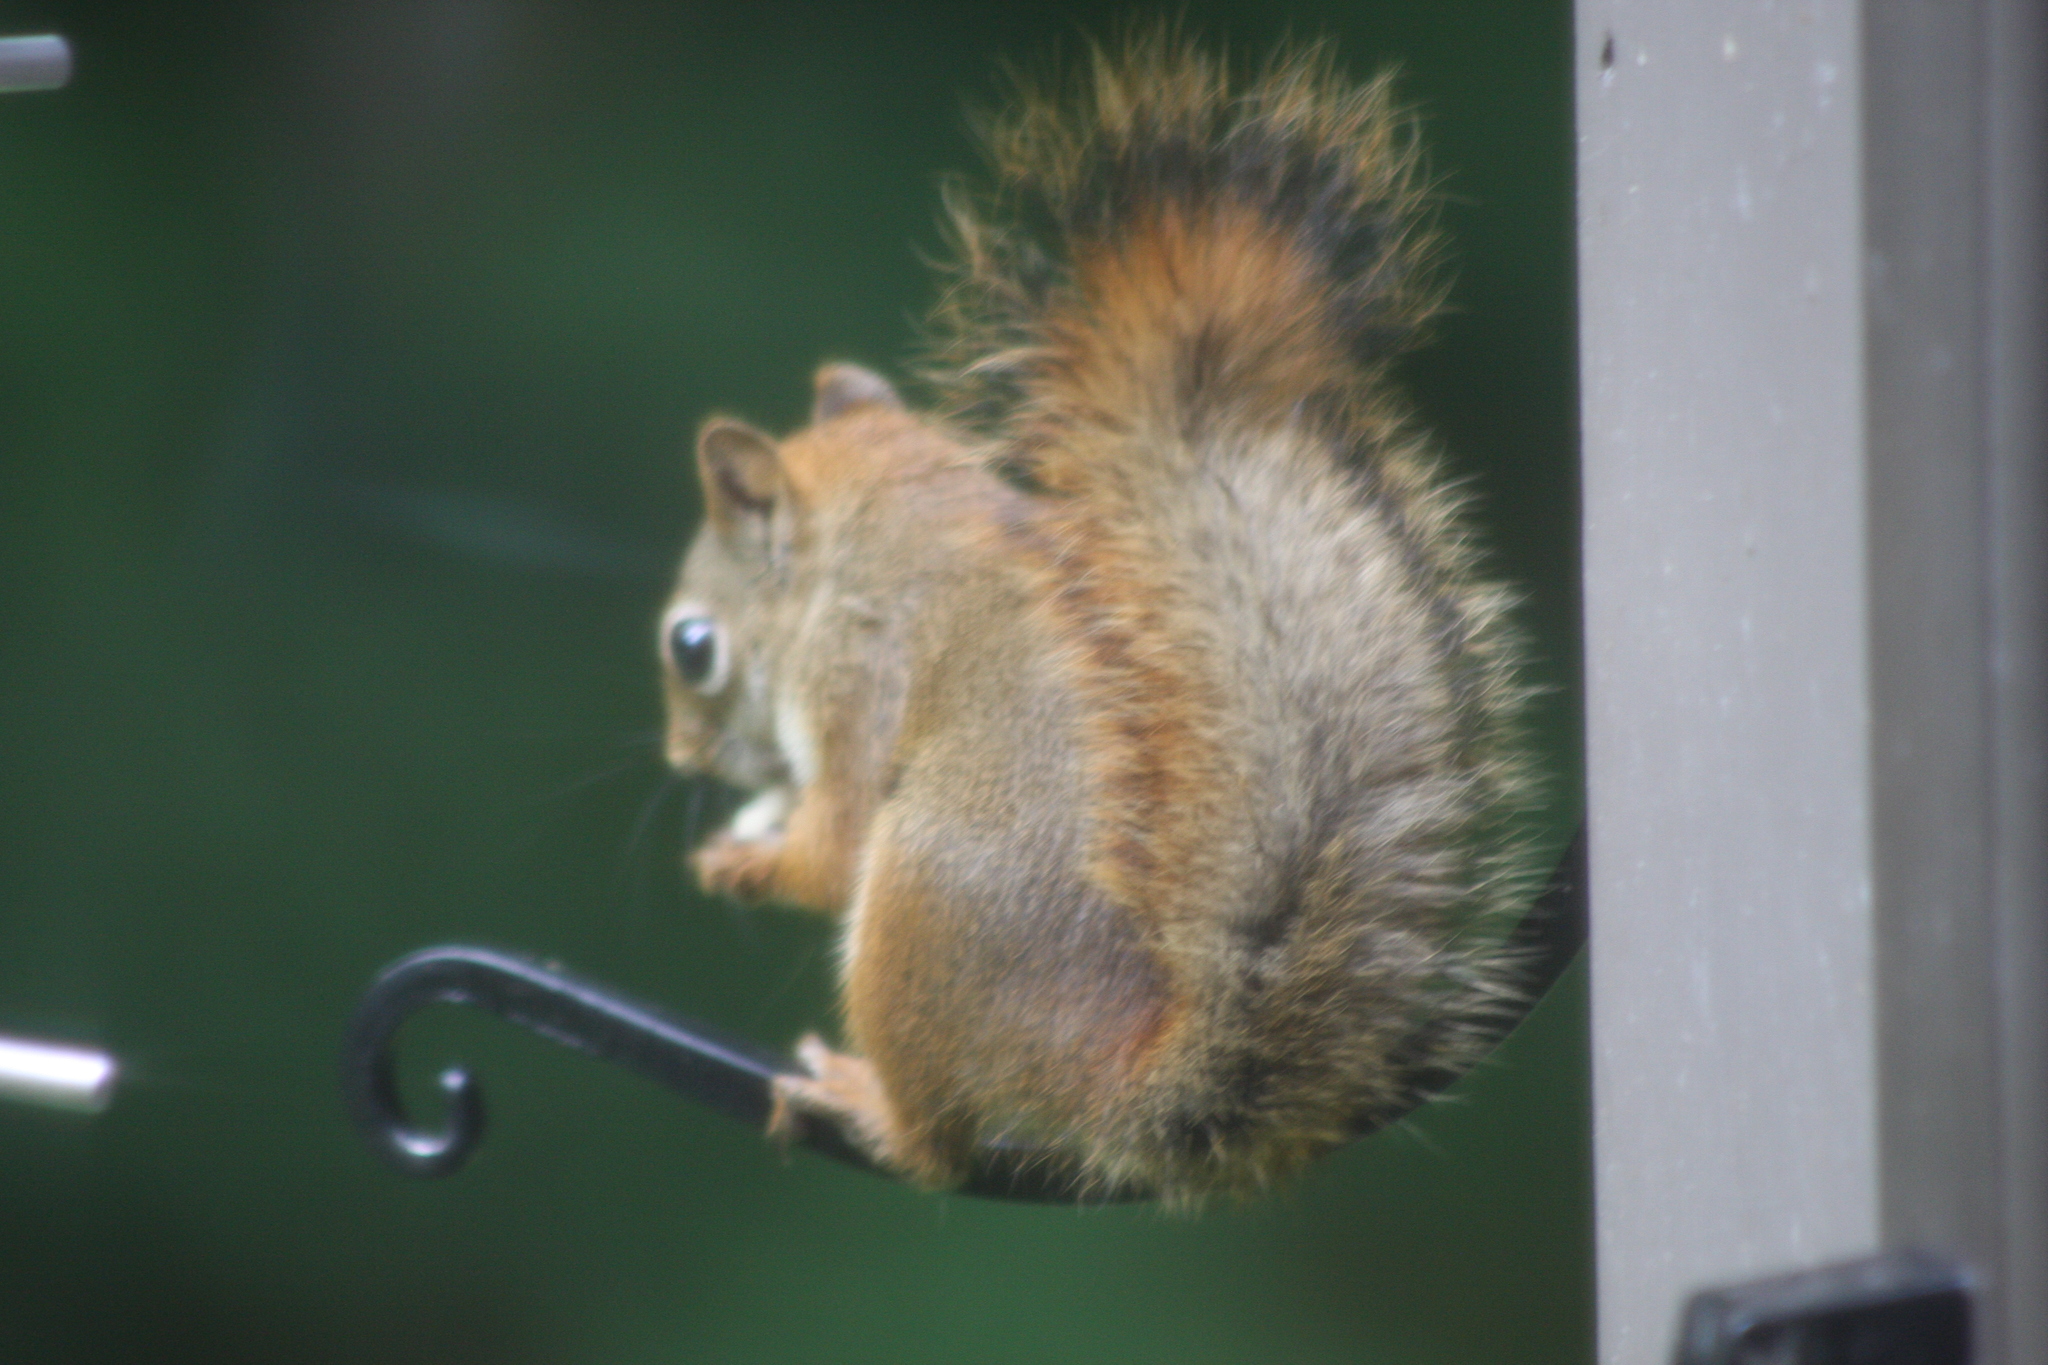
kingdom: Animalia
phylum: Chordata
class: Mammalia
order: Rodentia
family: Sciuridae
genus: Tamiasciurus
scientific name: Tamiasciurus hudsonicus
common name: Red squirrel
